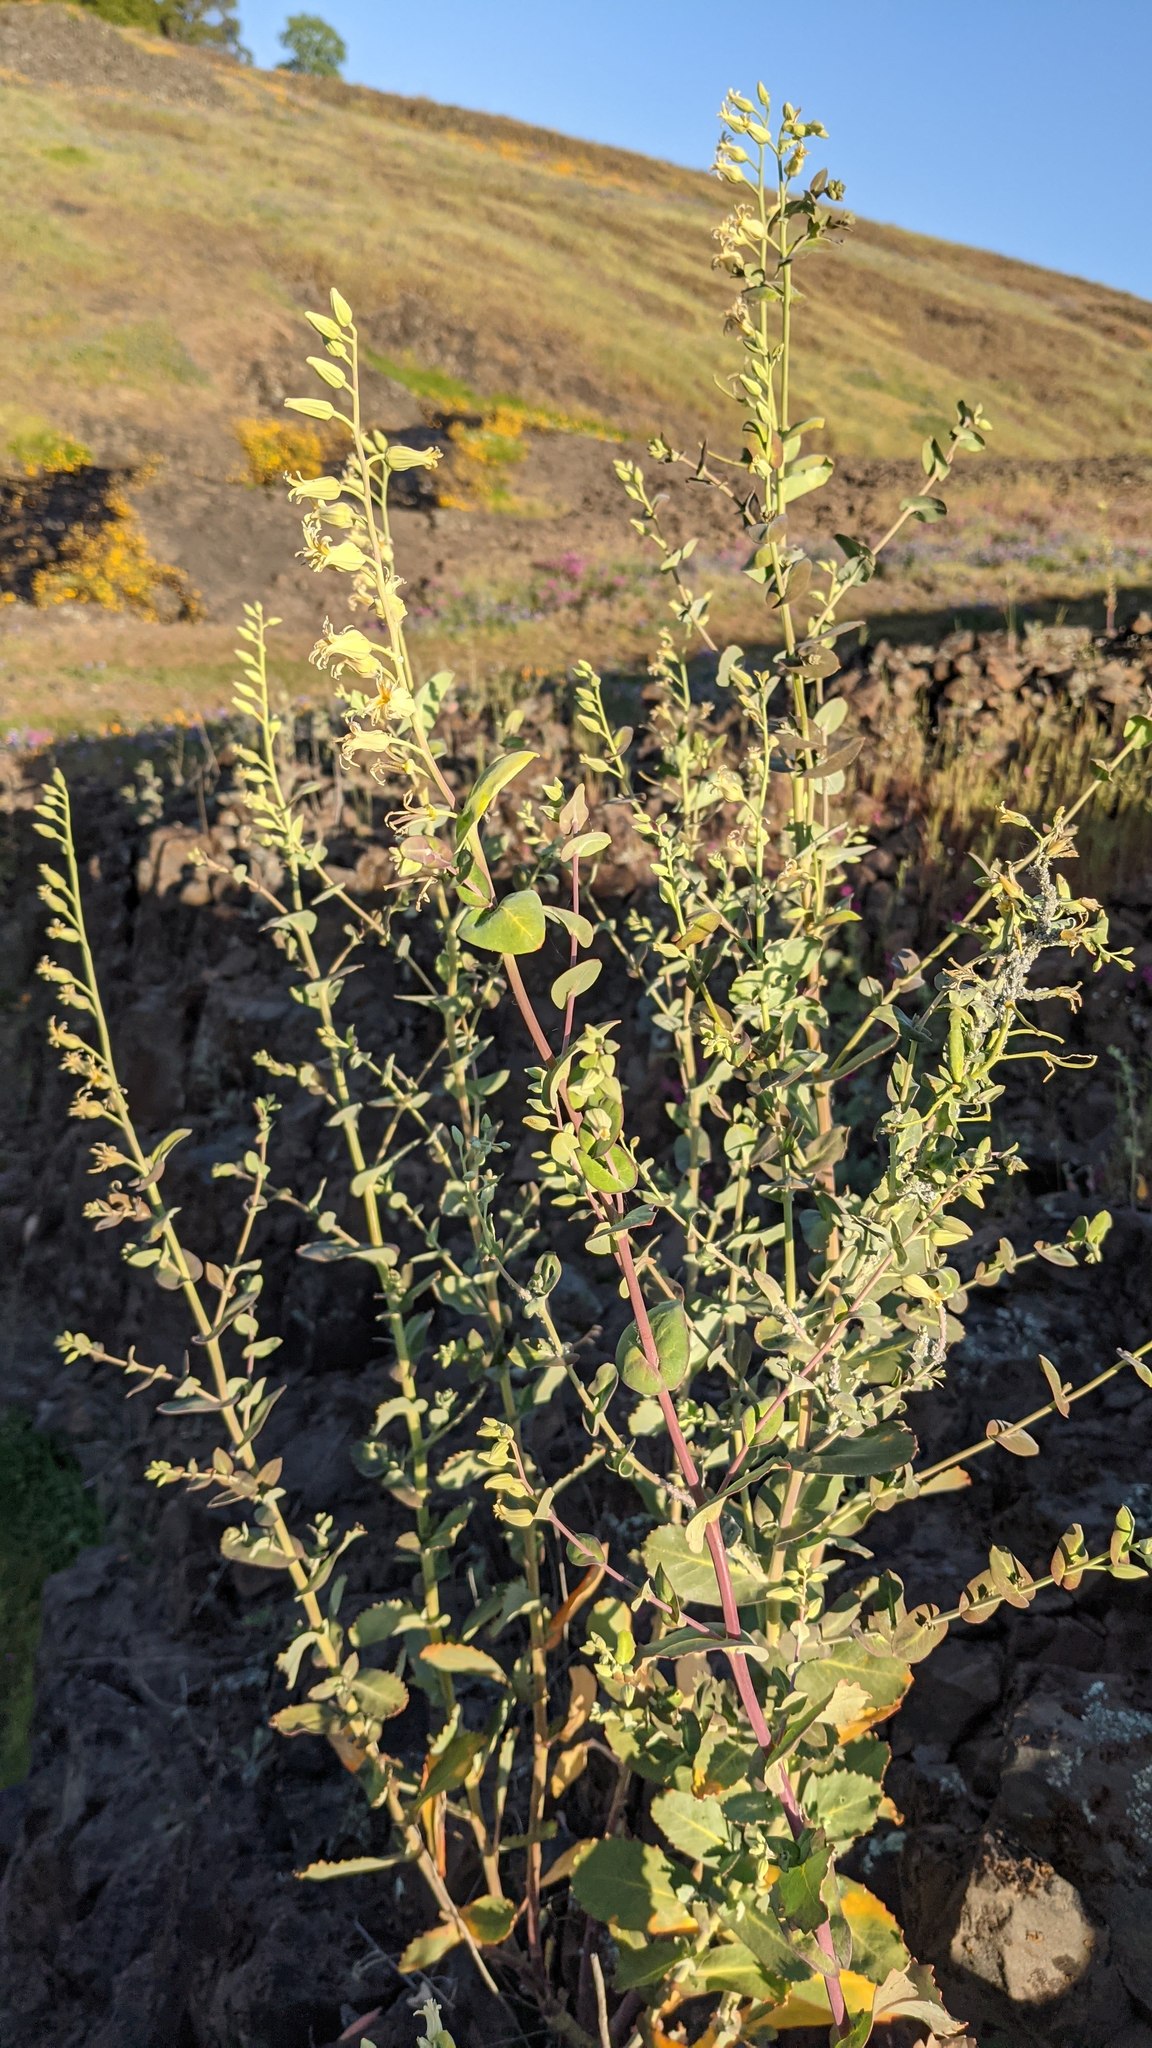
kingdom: Plantae
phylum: Tracheophyta
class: Magnoliopsida
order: Brassicales
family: Brassicaceae
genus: Streptanthus
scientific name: Streptanthus tortuosus
